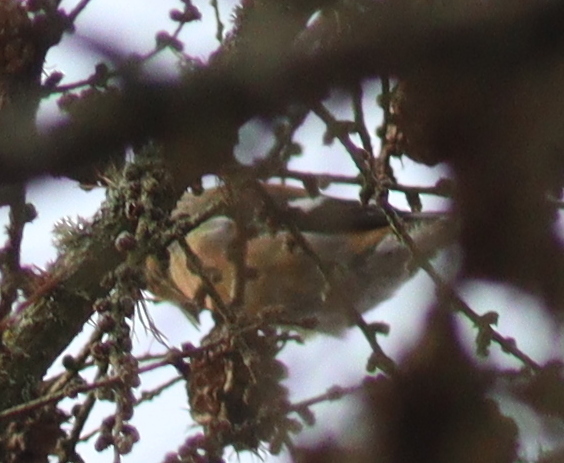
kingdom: Animalia
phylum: Chordata
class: Aves
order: Passeriformes
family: Fringillidae
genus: Loxia
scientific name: Loxia leucoptera
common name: Two-barred crossbill
